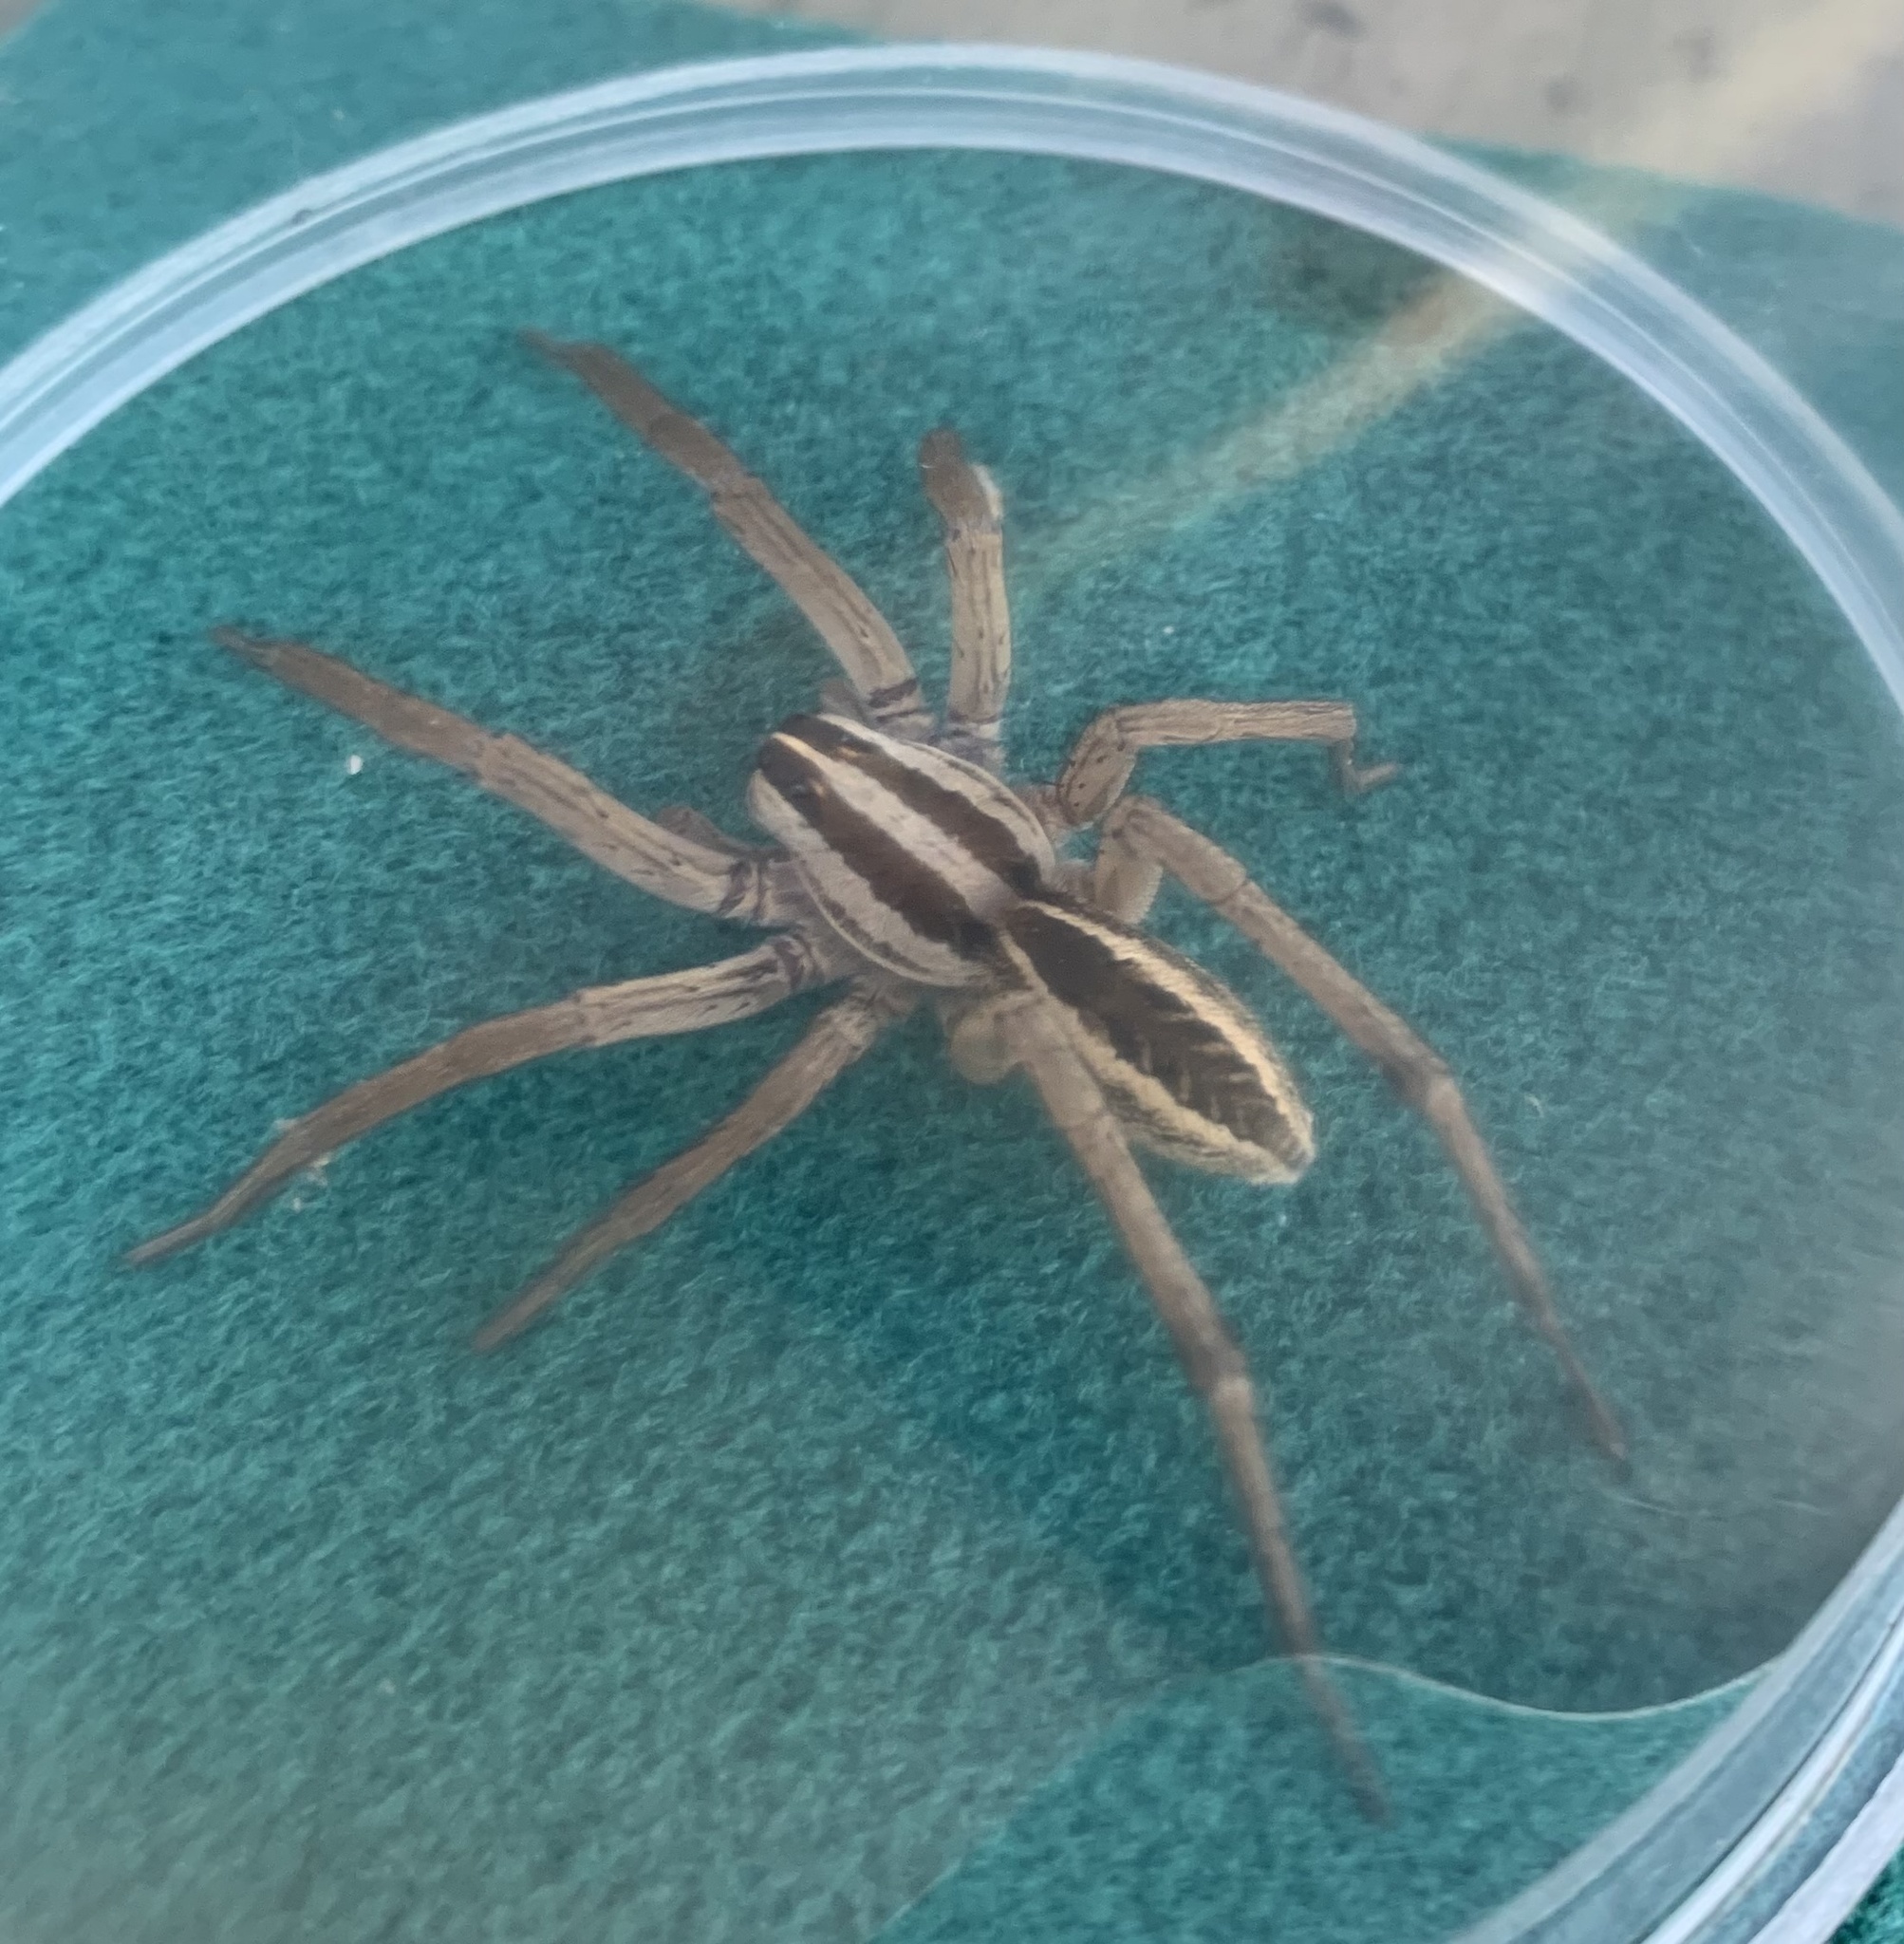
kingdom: Animalia
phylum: Arthropoda
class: Arachnida
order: Araneae
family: Lycosidae
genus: Rabidosa
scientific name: Rabidosa rabida
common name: Rabid wolf spider
